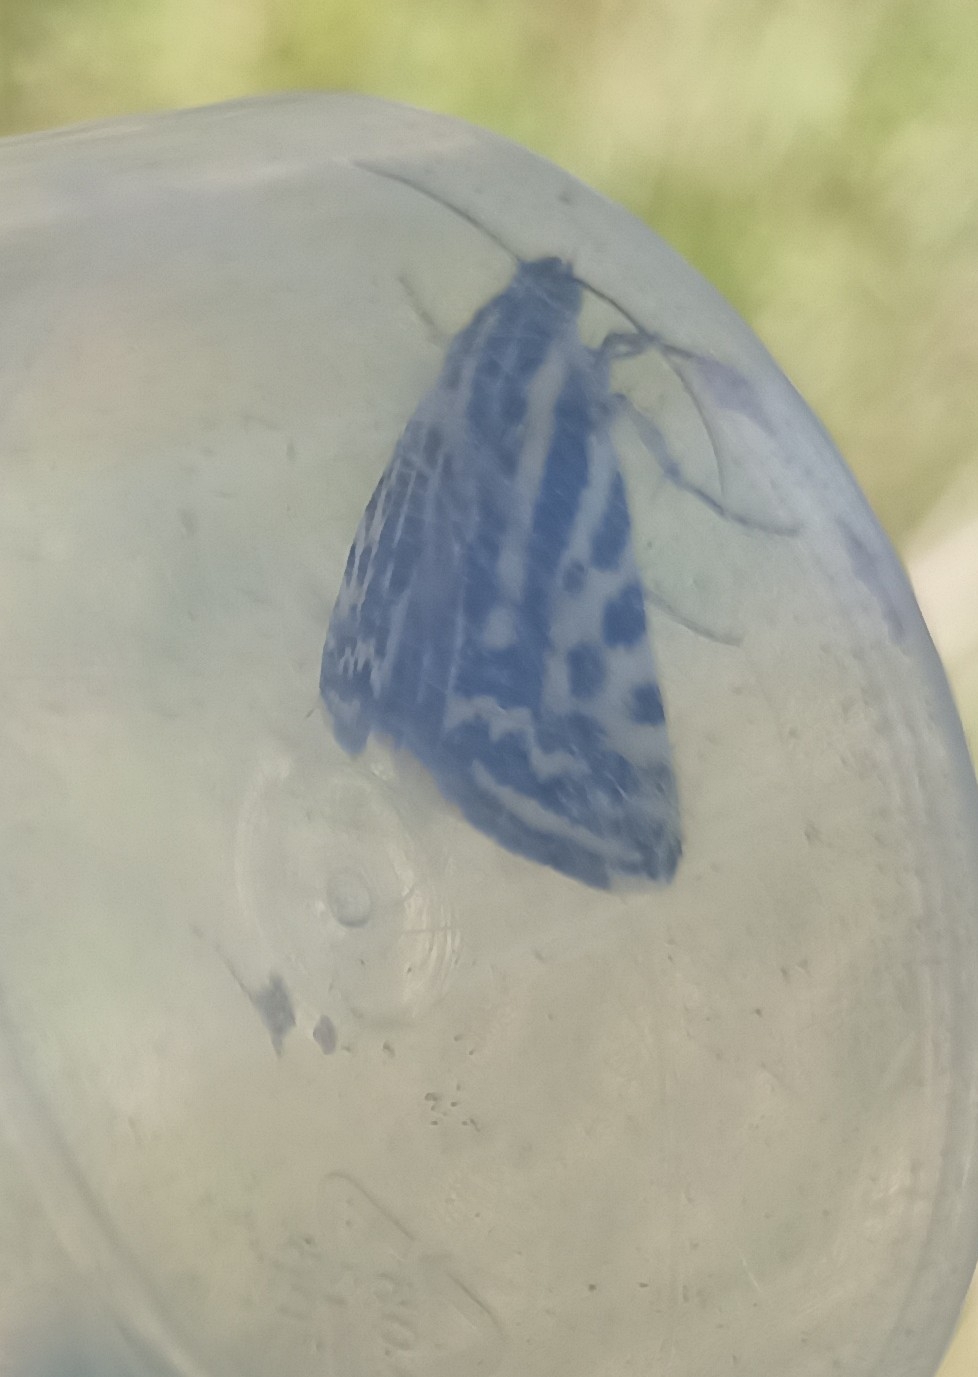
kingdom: Animalia
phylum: Arthropoda
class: Insecta
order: Lepidoptera
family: Noctuidae
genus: Acontia
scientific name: Acontia trabealis
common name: Spotted sulphur
